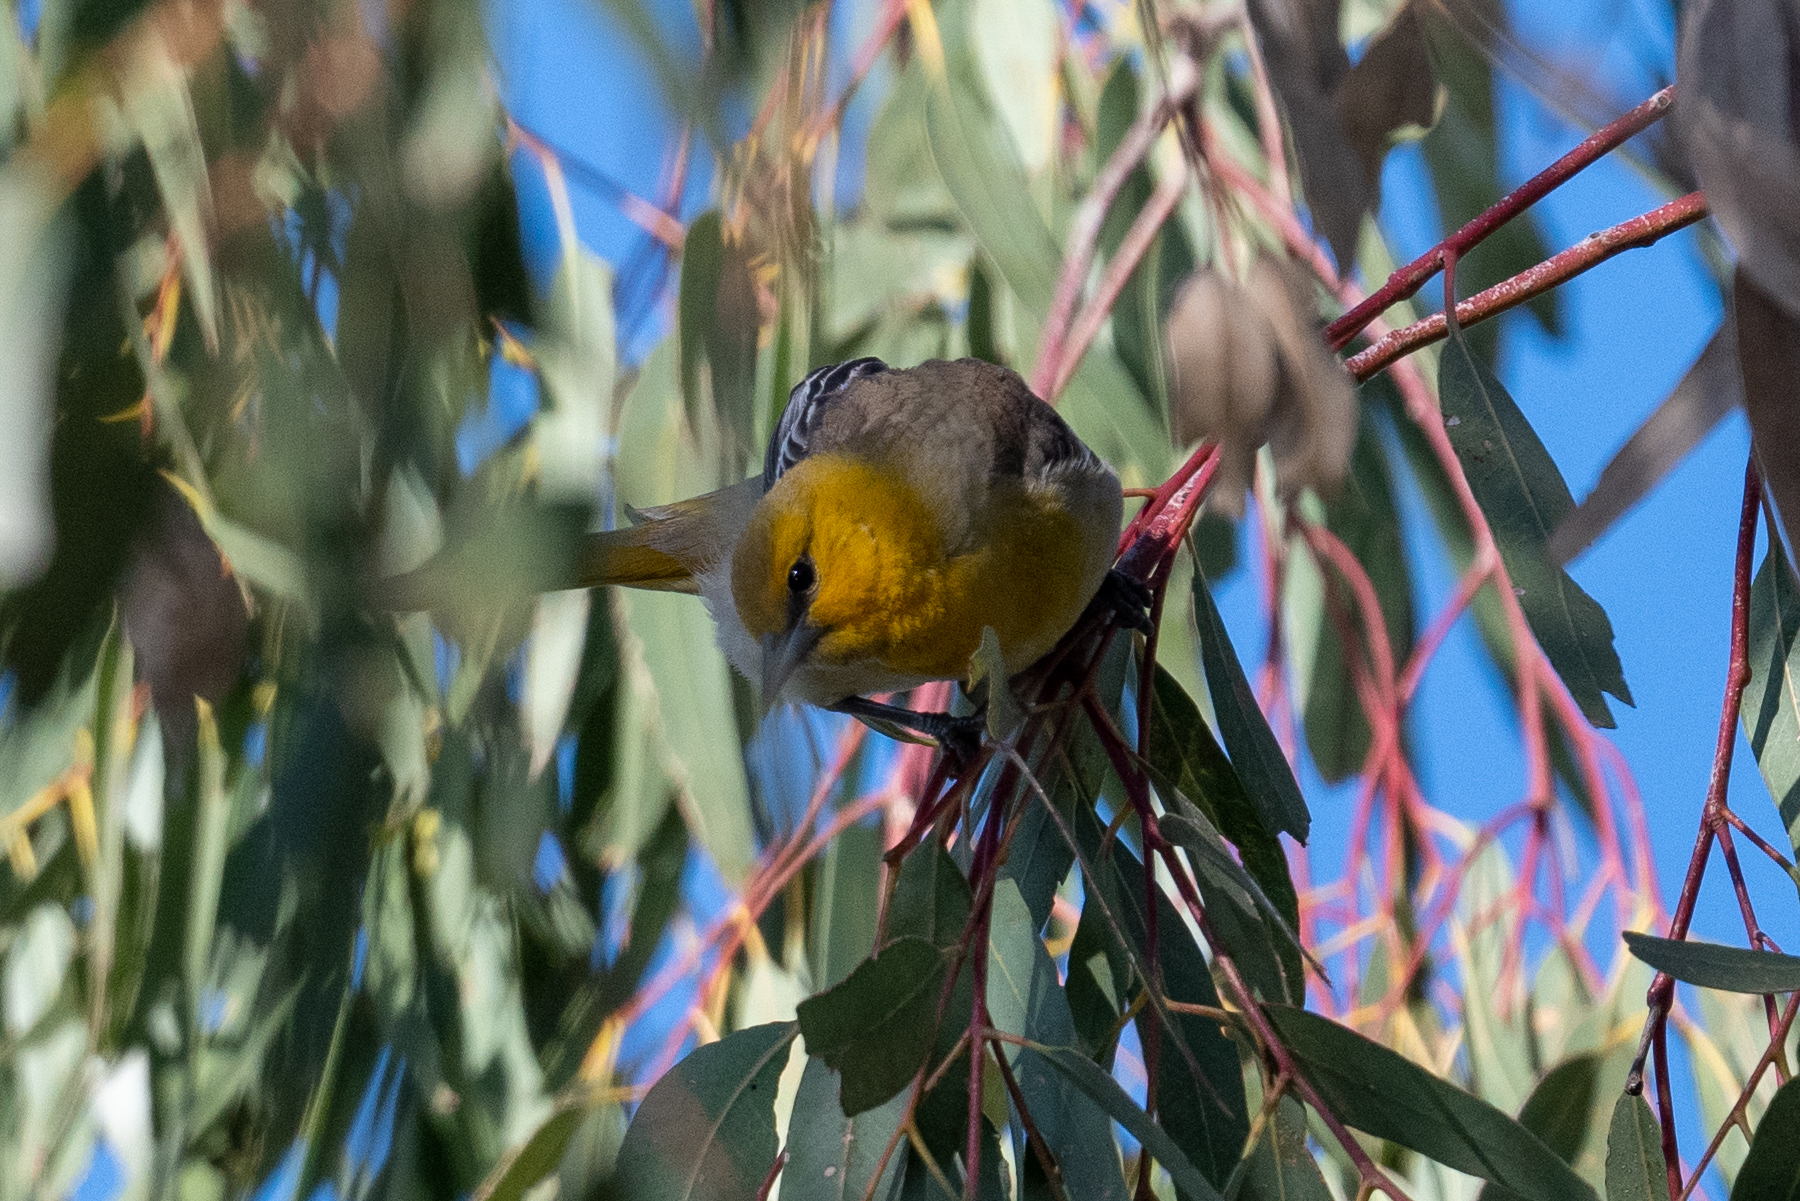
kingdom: Animalia
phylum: Chordata
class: Aves
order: Passeriformes
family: Icteridae
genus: Icterus
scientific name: Icterus bullockii
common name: Bullock's oriole
